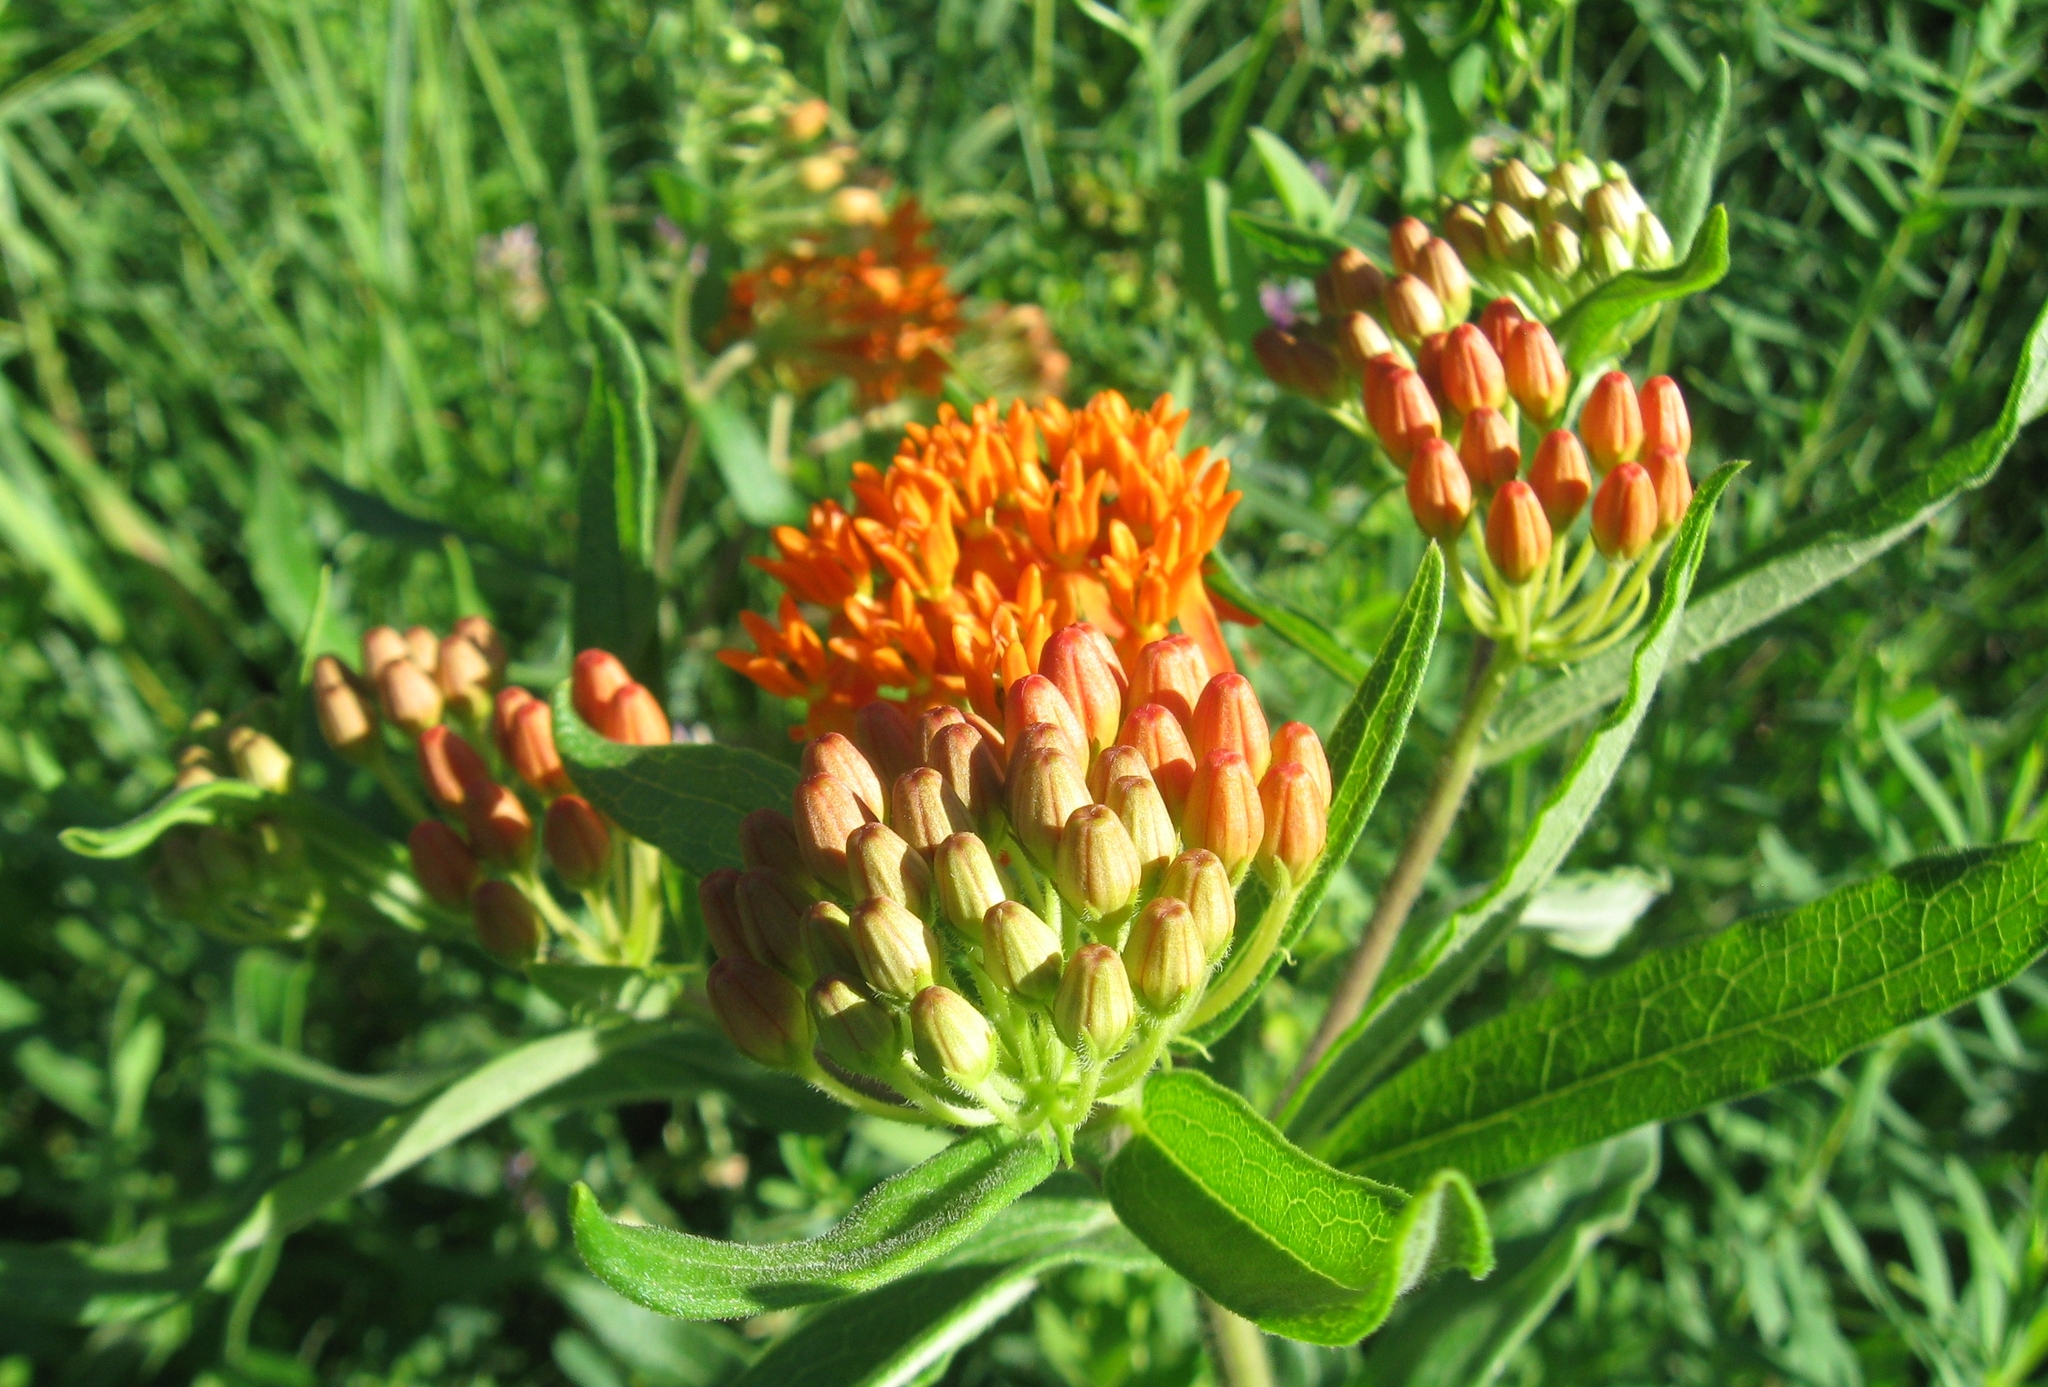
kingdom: Plantae
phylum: Tracheophyta
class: Magnoliopsida
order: Gentianales
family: Apocynaceae
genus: Asclepias
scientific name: Asclepias tuberosa
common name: Butterfly milkweed
